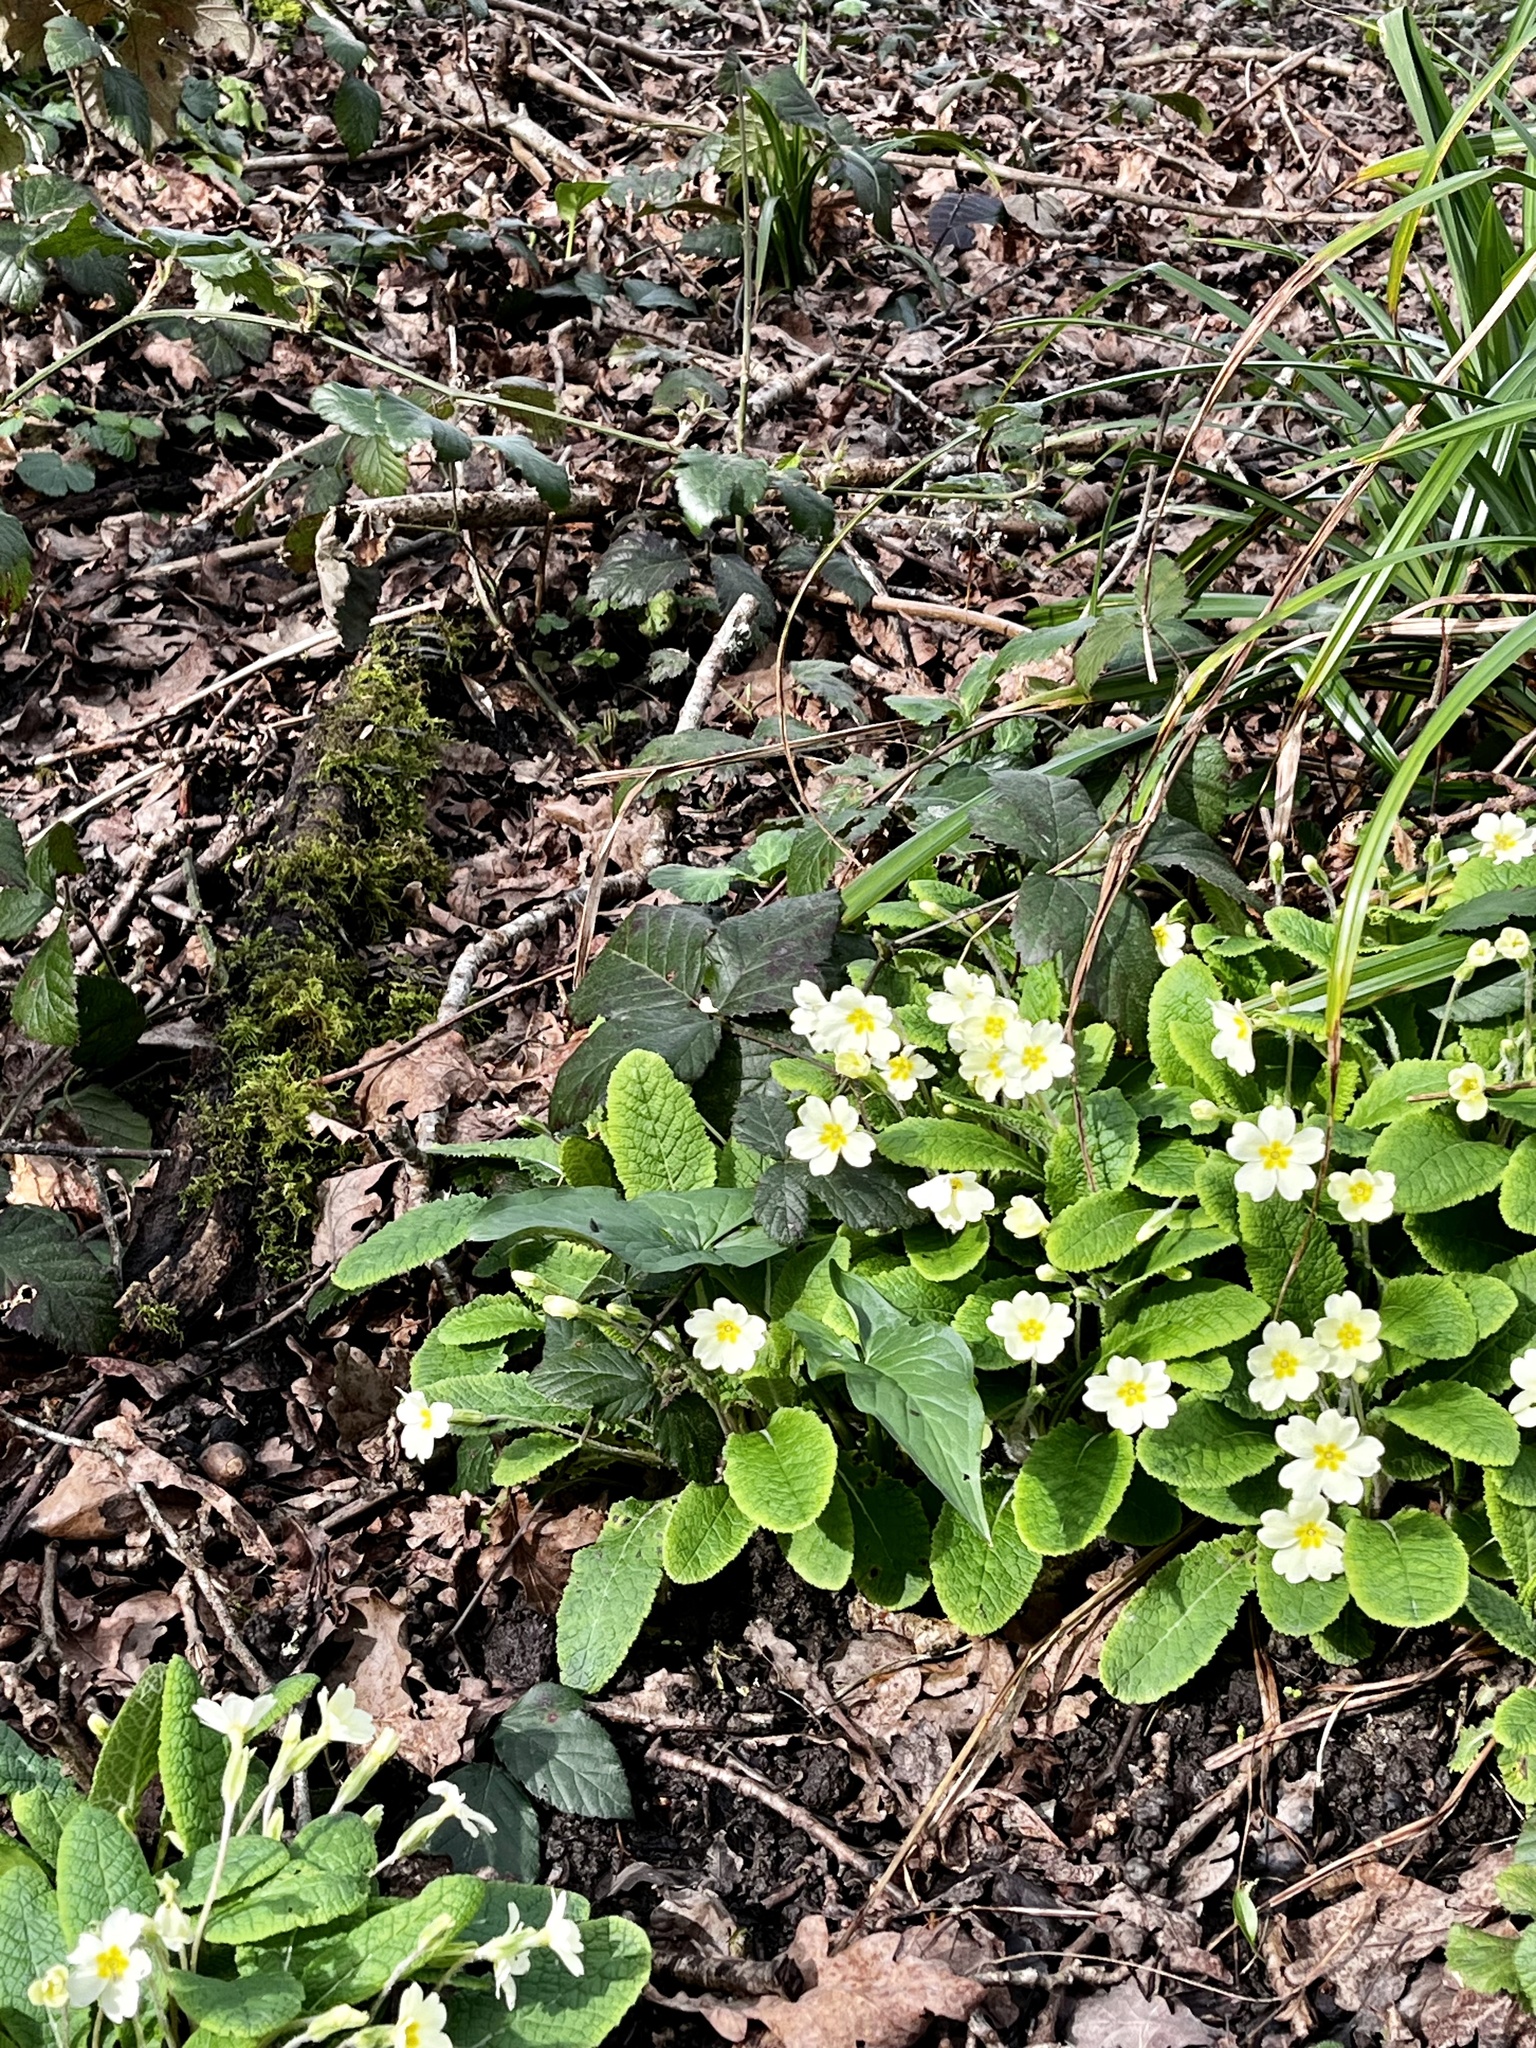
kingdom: Plantae
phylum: Tracheophyta
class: Magnoliopsida
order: Ericales
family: Primulaceae
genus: Primula
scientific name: Primula vulgaris
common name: Primrose
